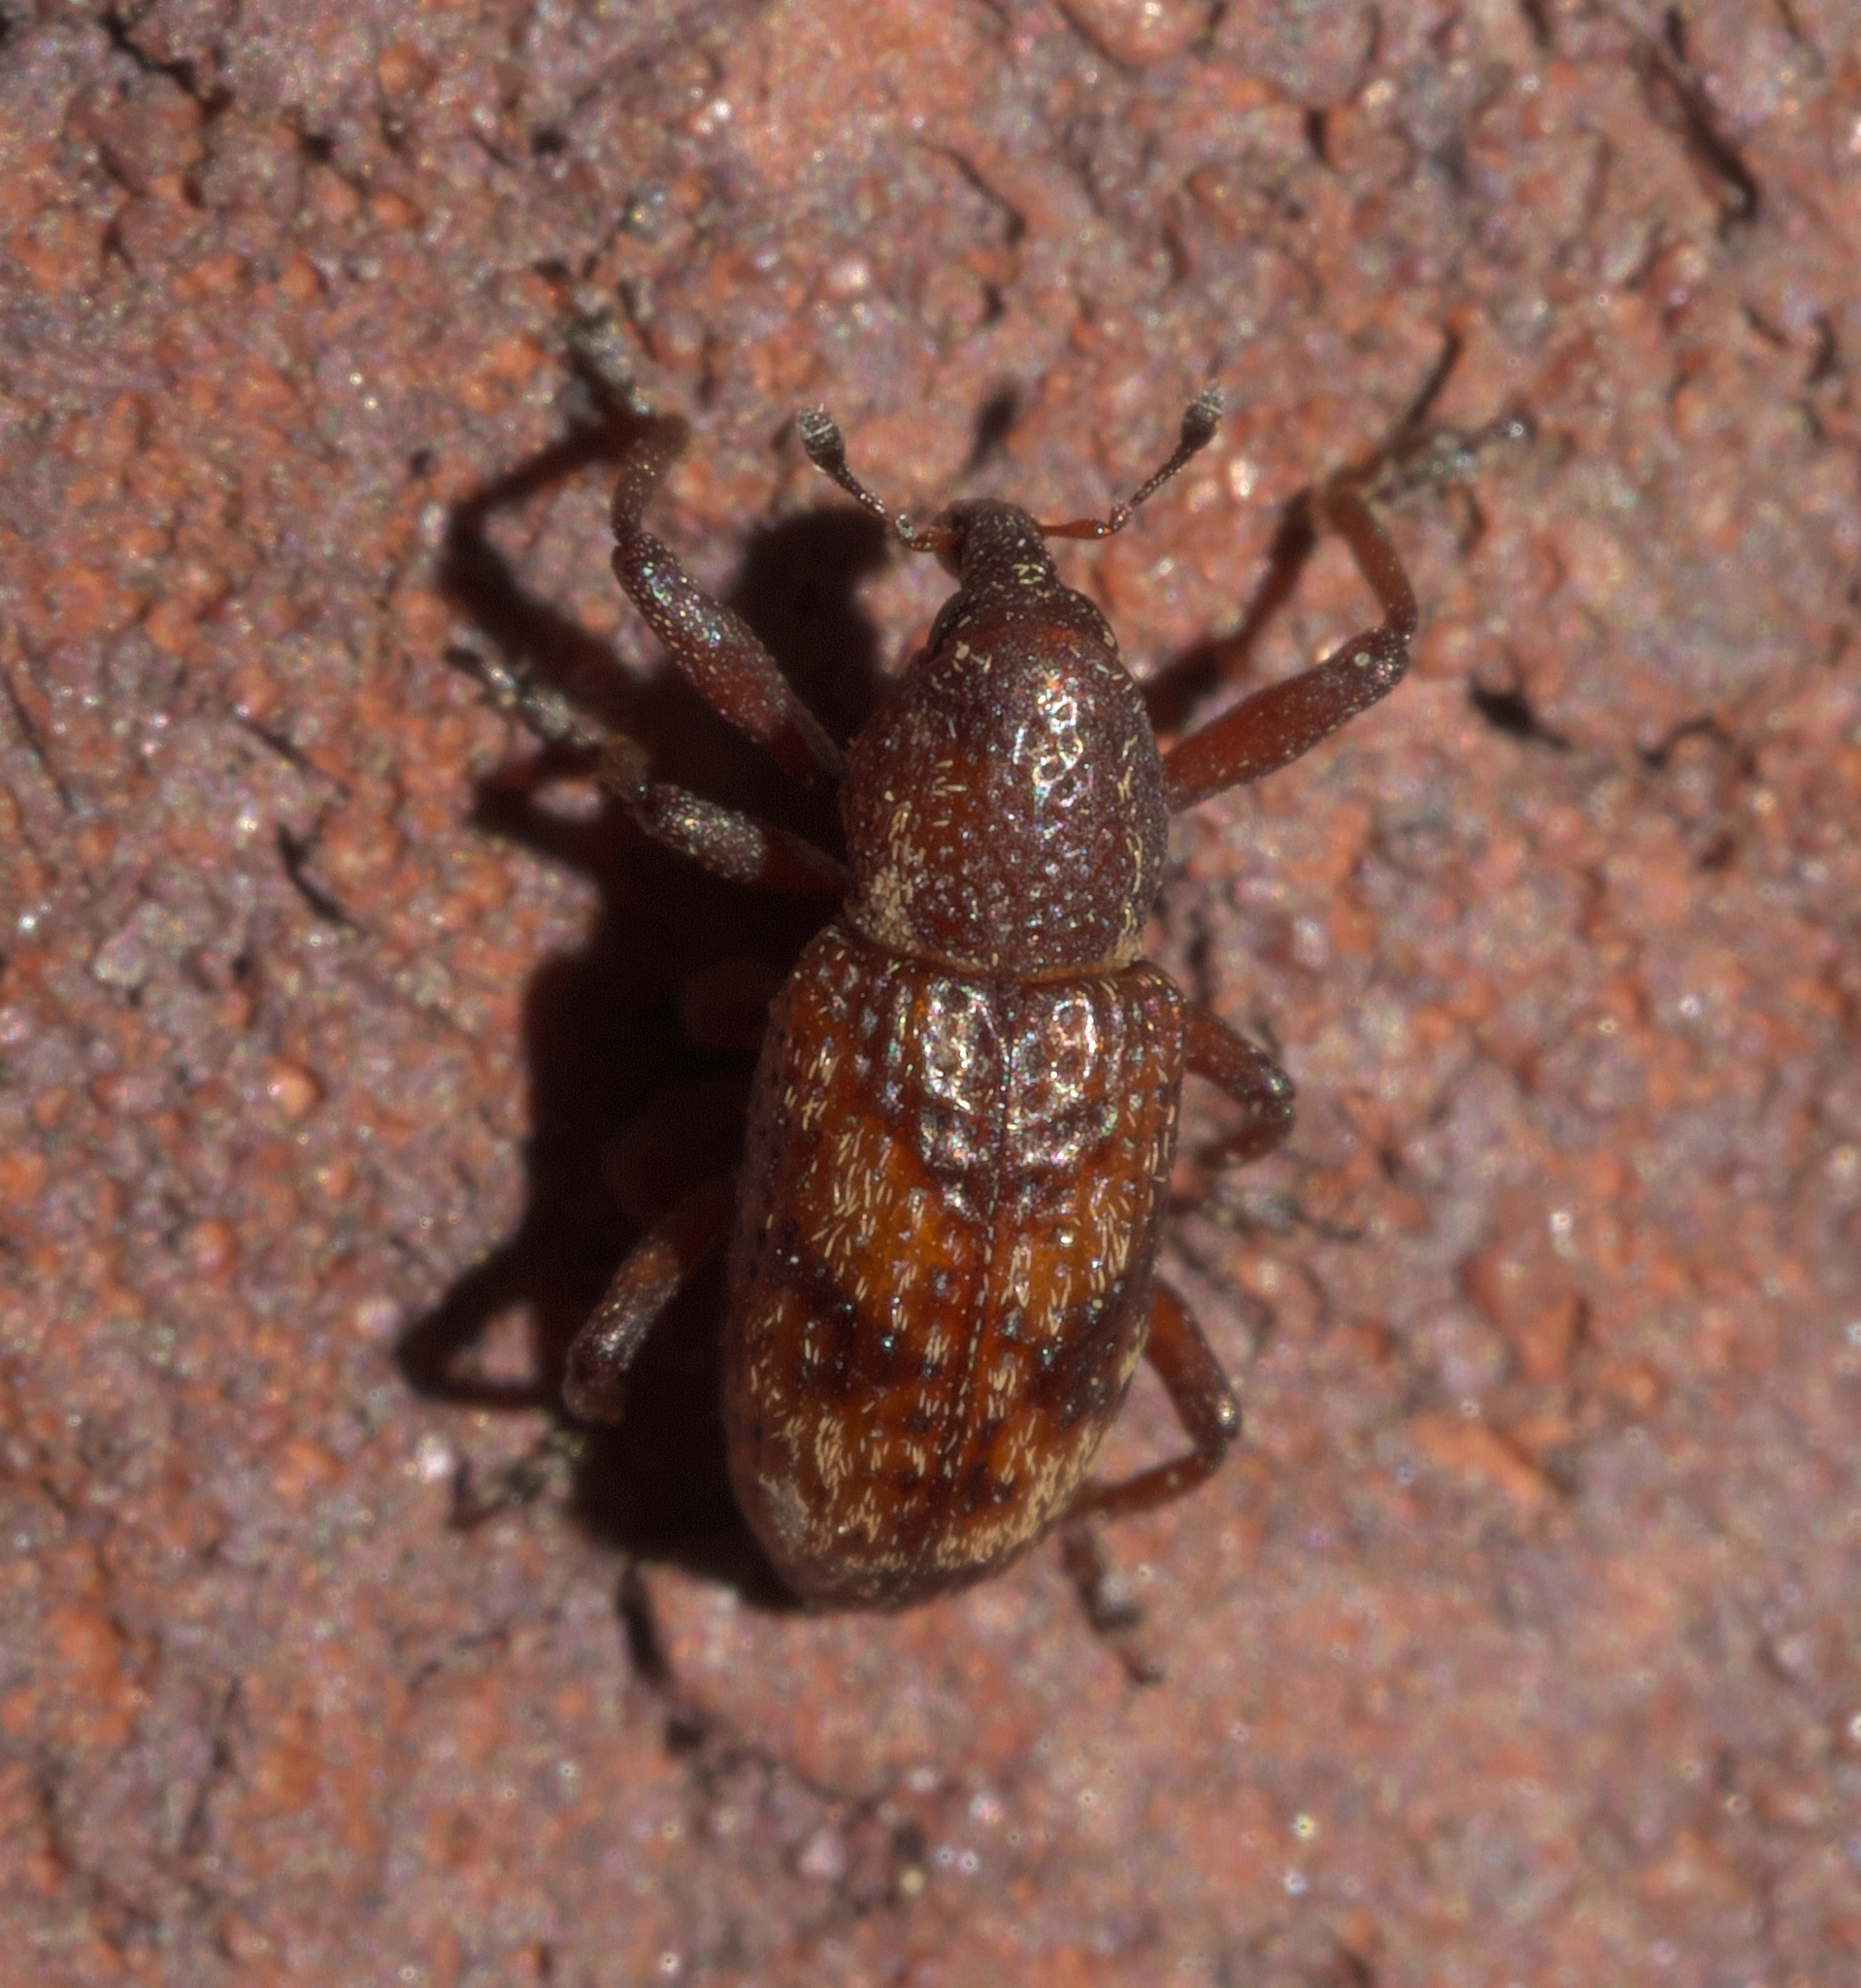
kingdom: Animalia
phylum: Arthropoda
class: Insecta
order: Coleoptera
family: Curculionidae
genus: Tyloderma
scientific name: Tyloderma sphaerocarpae
